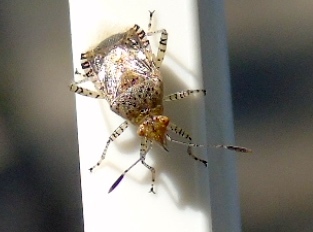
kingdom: Animalia
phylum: Arthropoda
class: Insecta
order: Hemiptera
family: Rhopalidae
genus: Niesthrea
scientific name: Niesthrea
